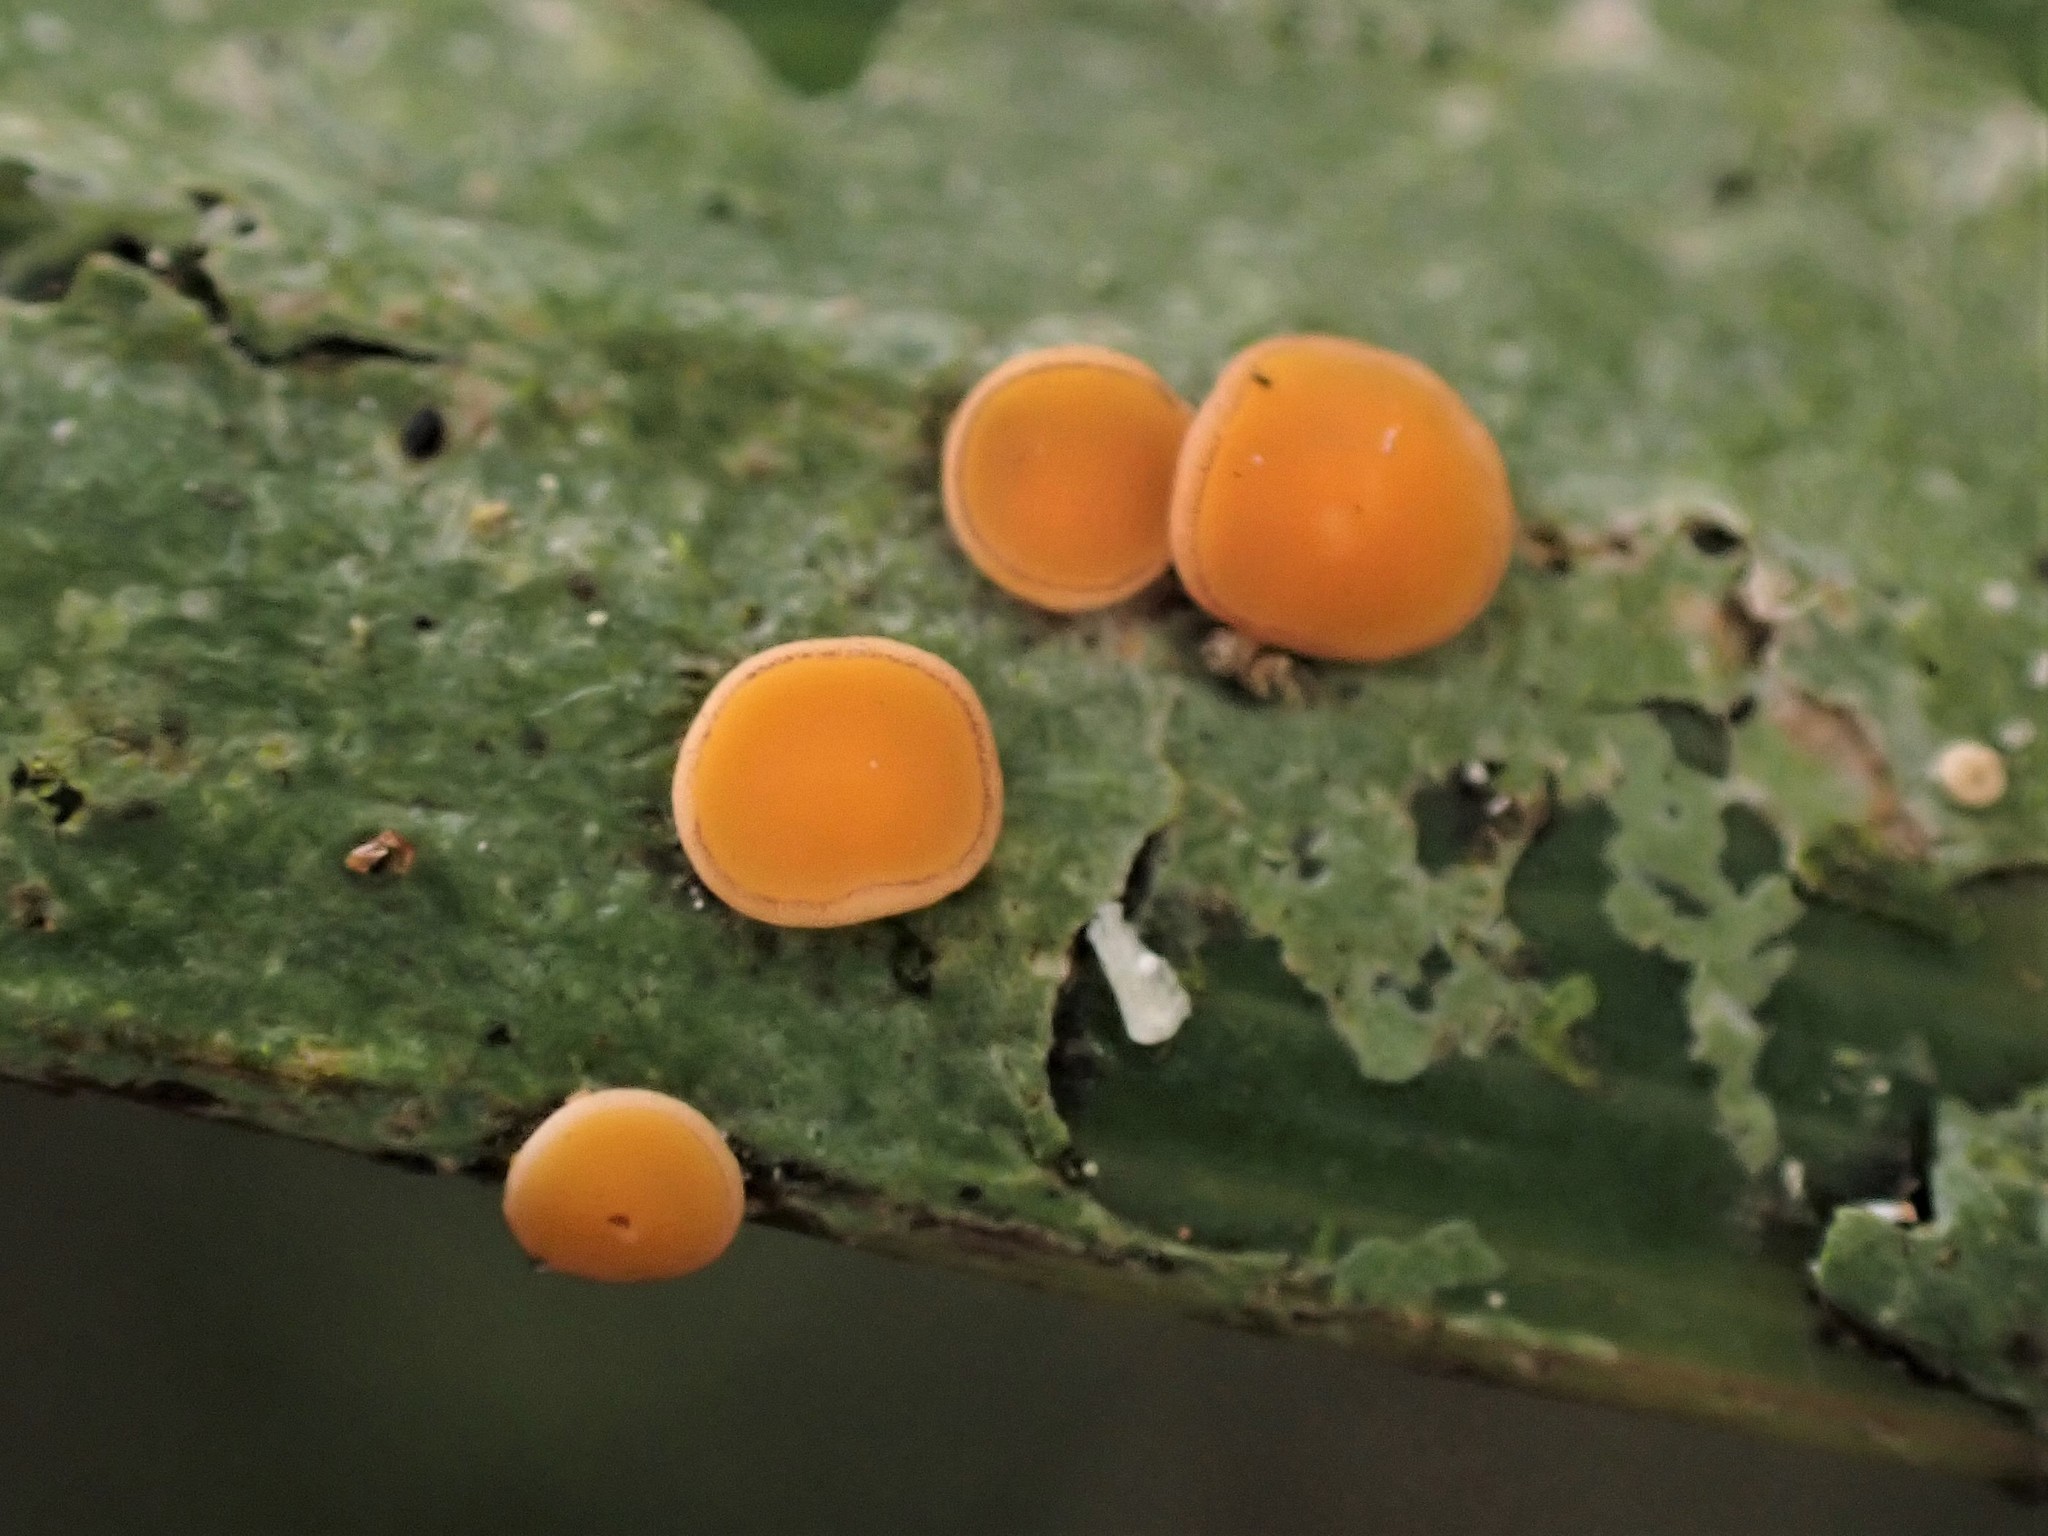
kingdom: Fungi
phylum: Ascomycota
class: Lecanoromycetes
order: Ostropales
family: Coenogoniaceae
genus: Coenogonium
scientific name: Coenogonium fallaciosum
